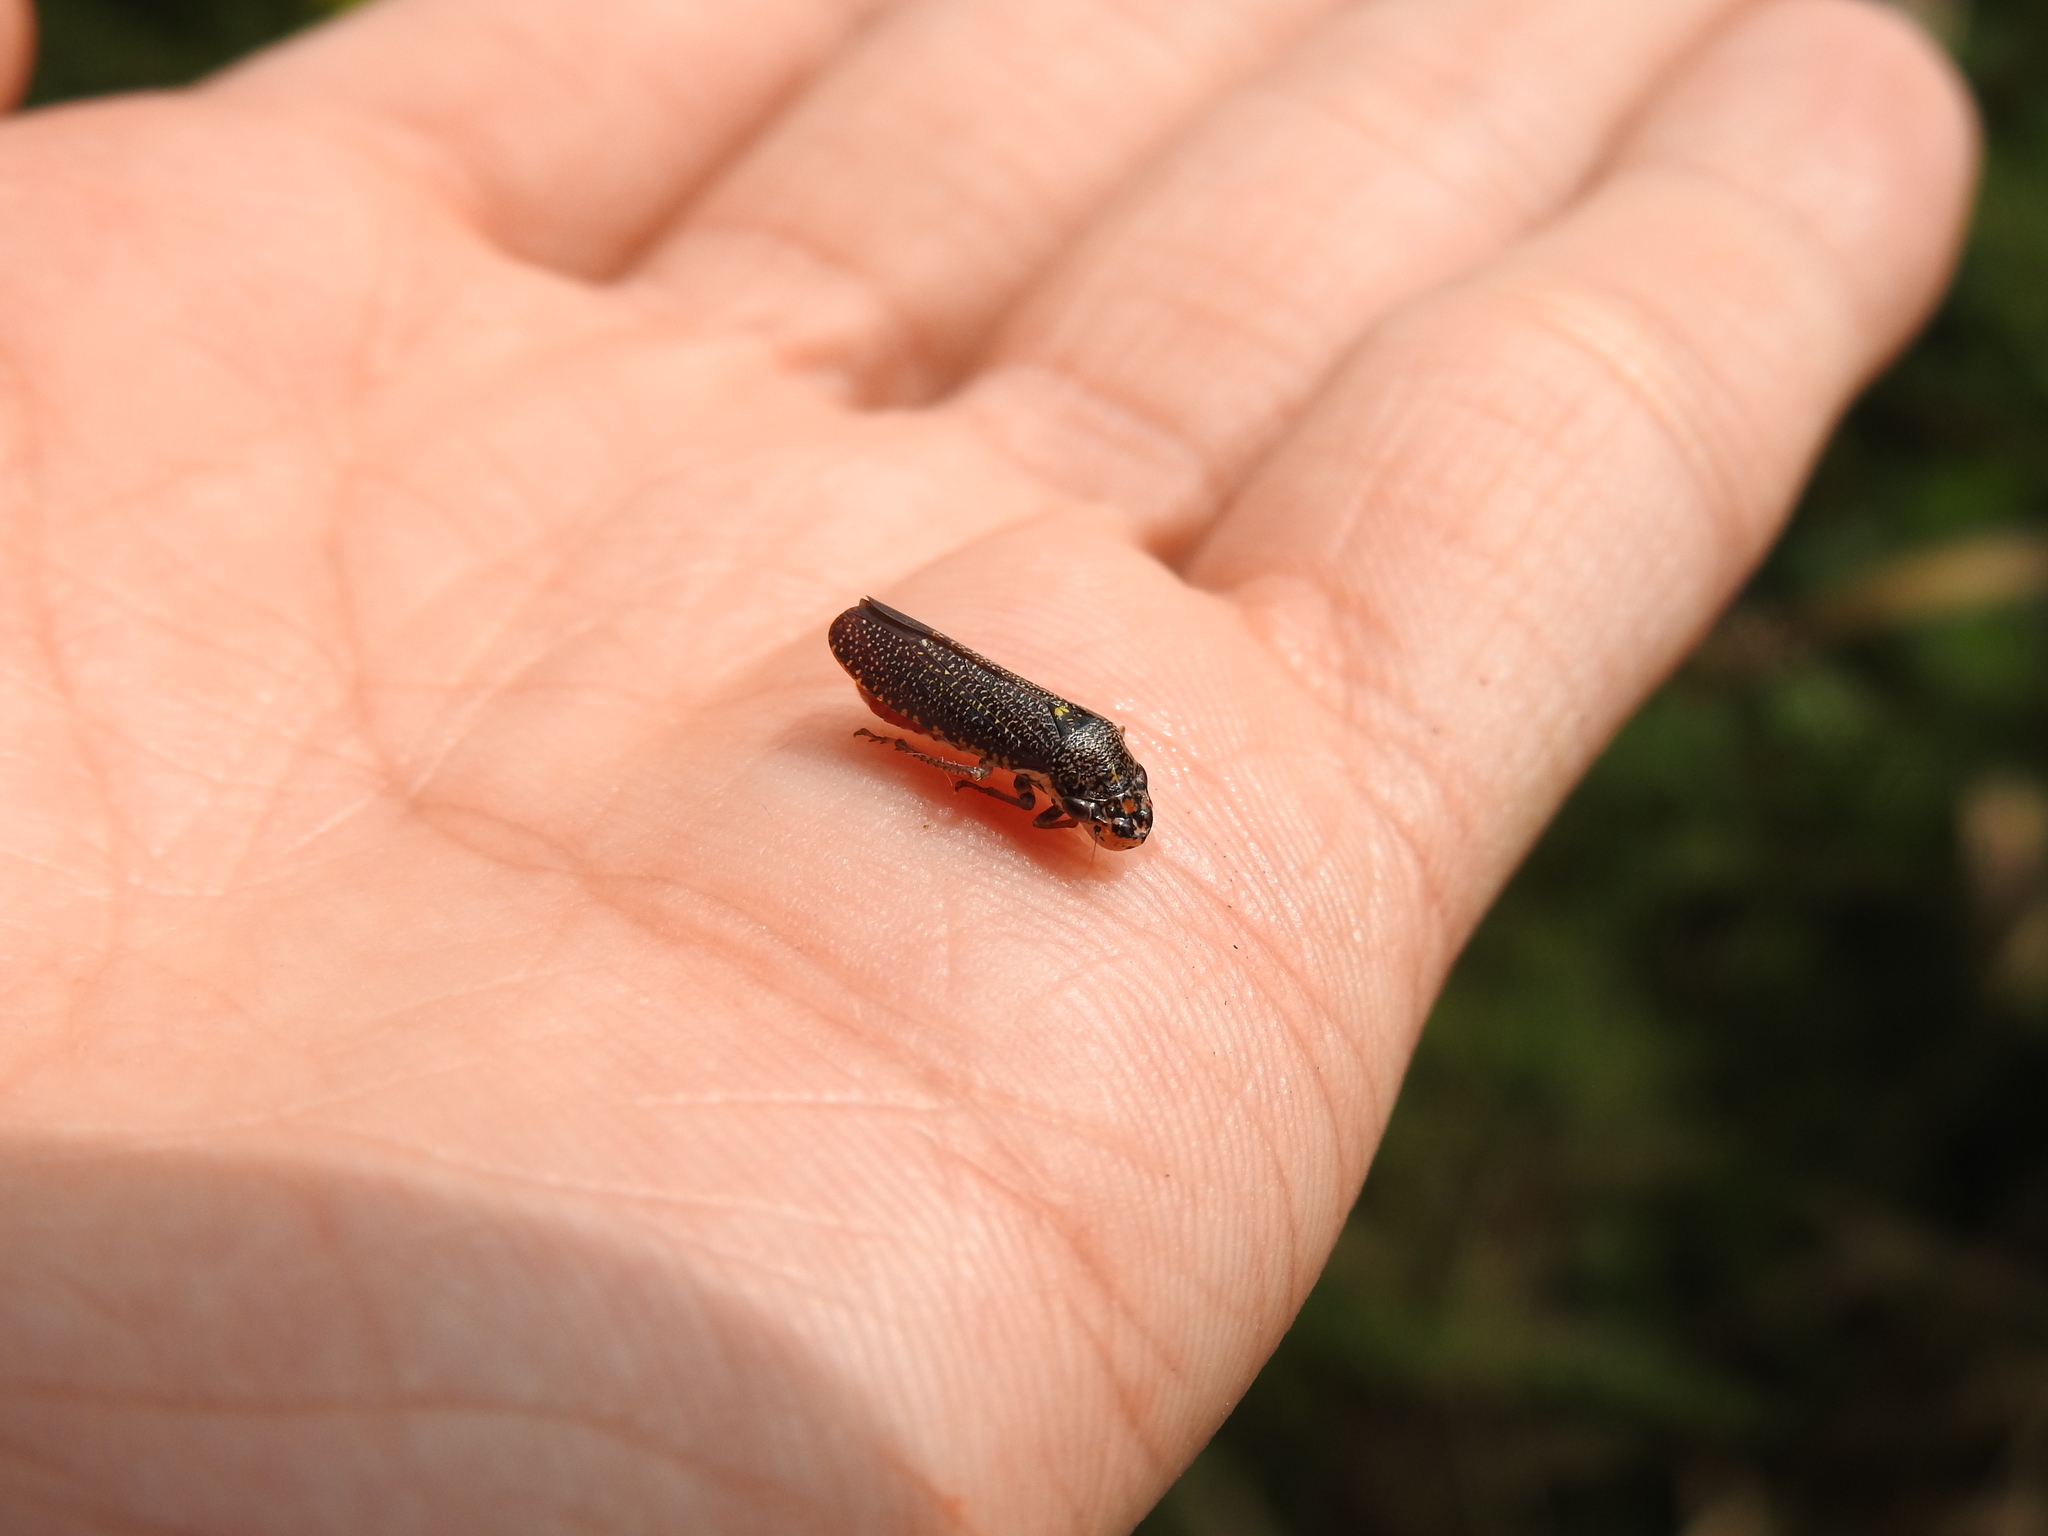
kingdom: Animalia
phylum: Arthropoda
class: Insecta
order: Hemiptera
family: Cicadellidae
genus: Paraulacizes
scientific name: Paraulacizes irrorata
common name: Speckled sharpshooter
